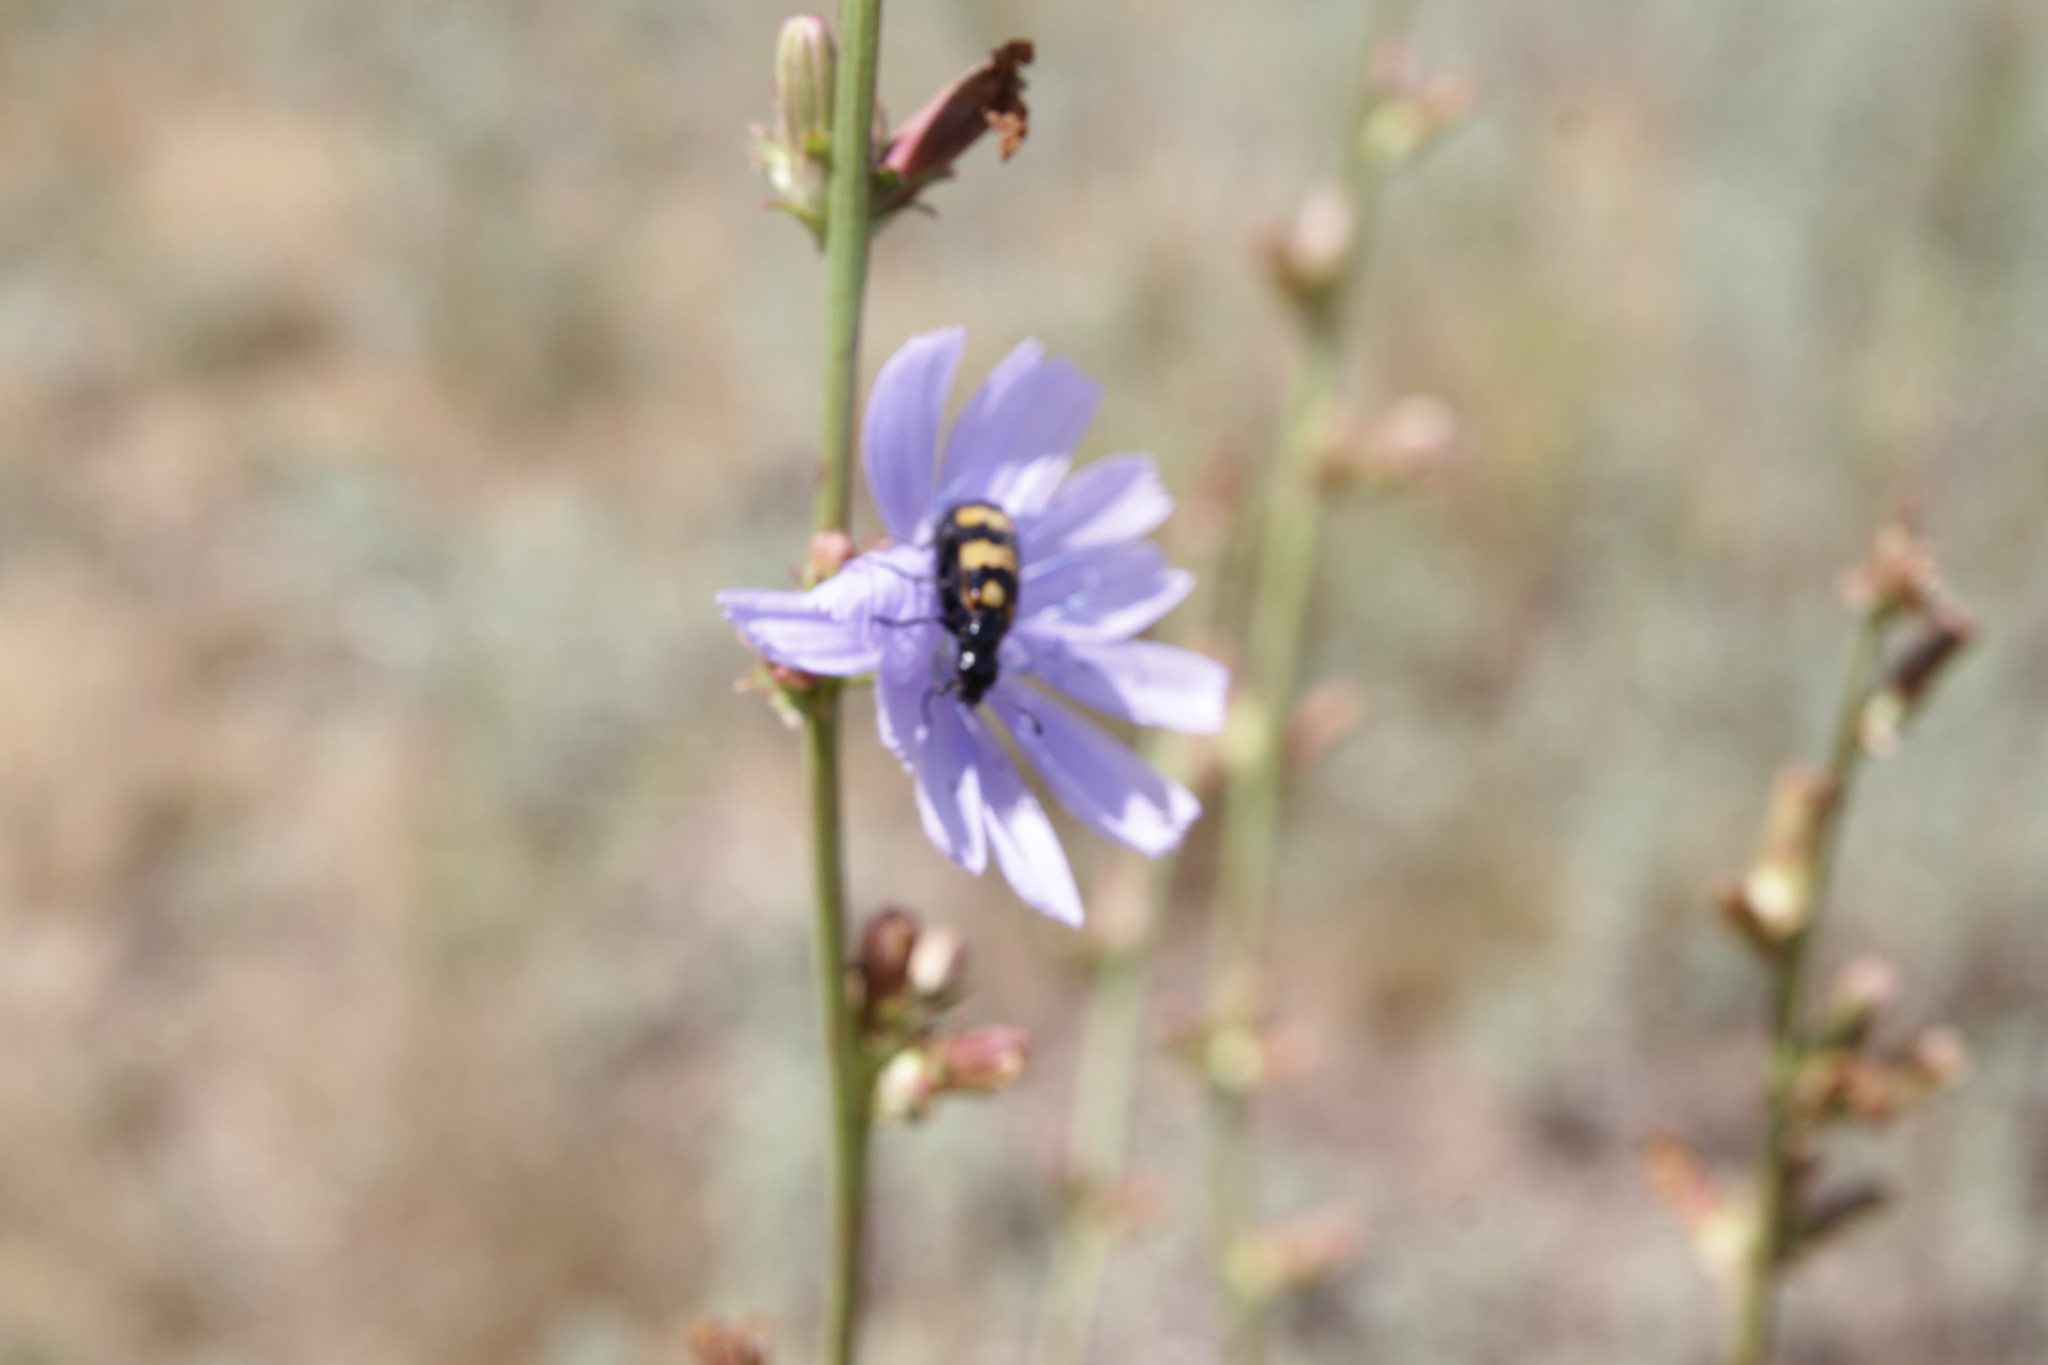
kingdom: Plantae
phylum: Tracheophyta
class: Magnoliopsida
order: Asterales
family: Asteraceae
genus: Cichorium
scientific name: Cichorium intybus
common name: Chicory
